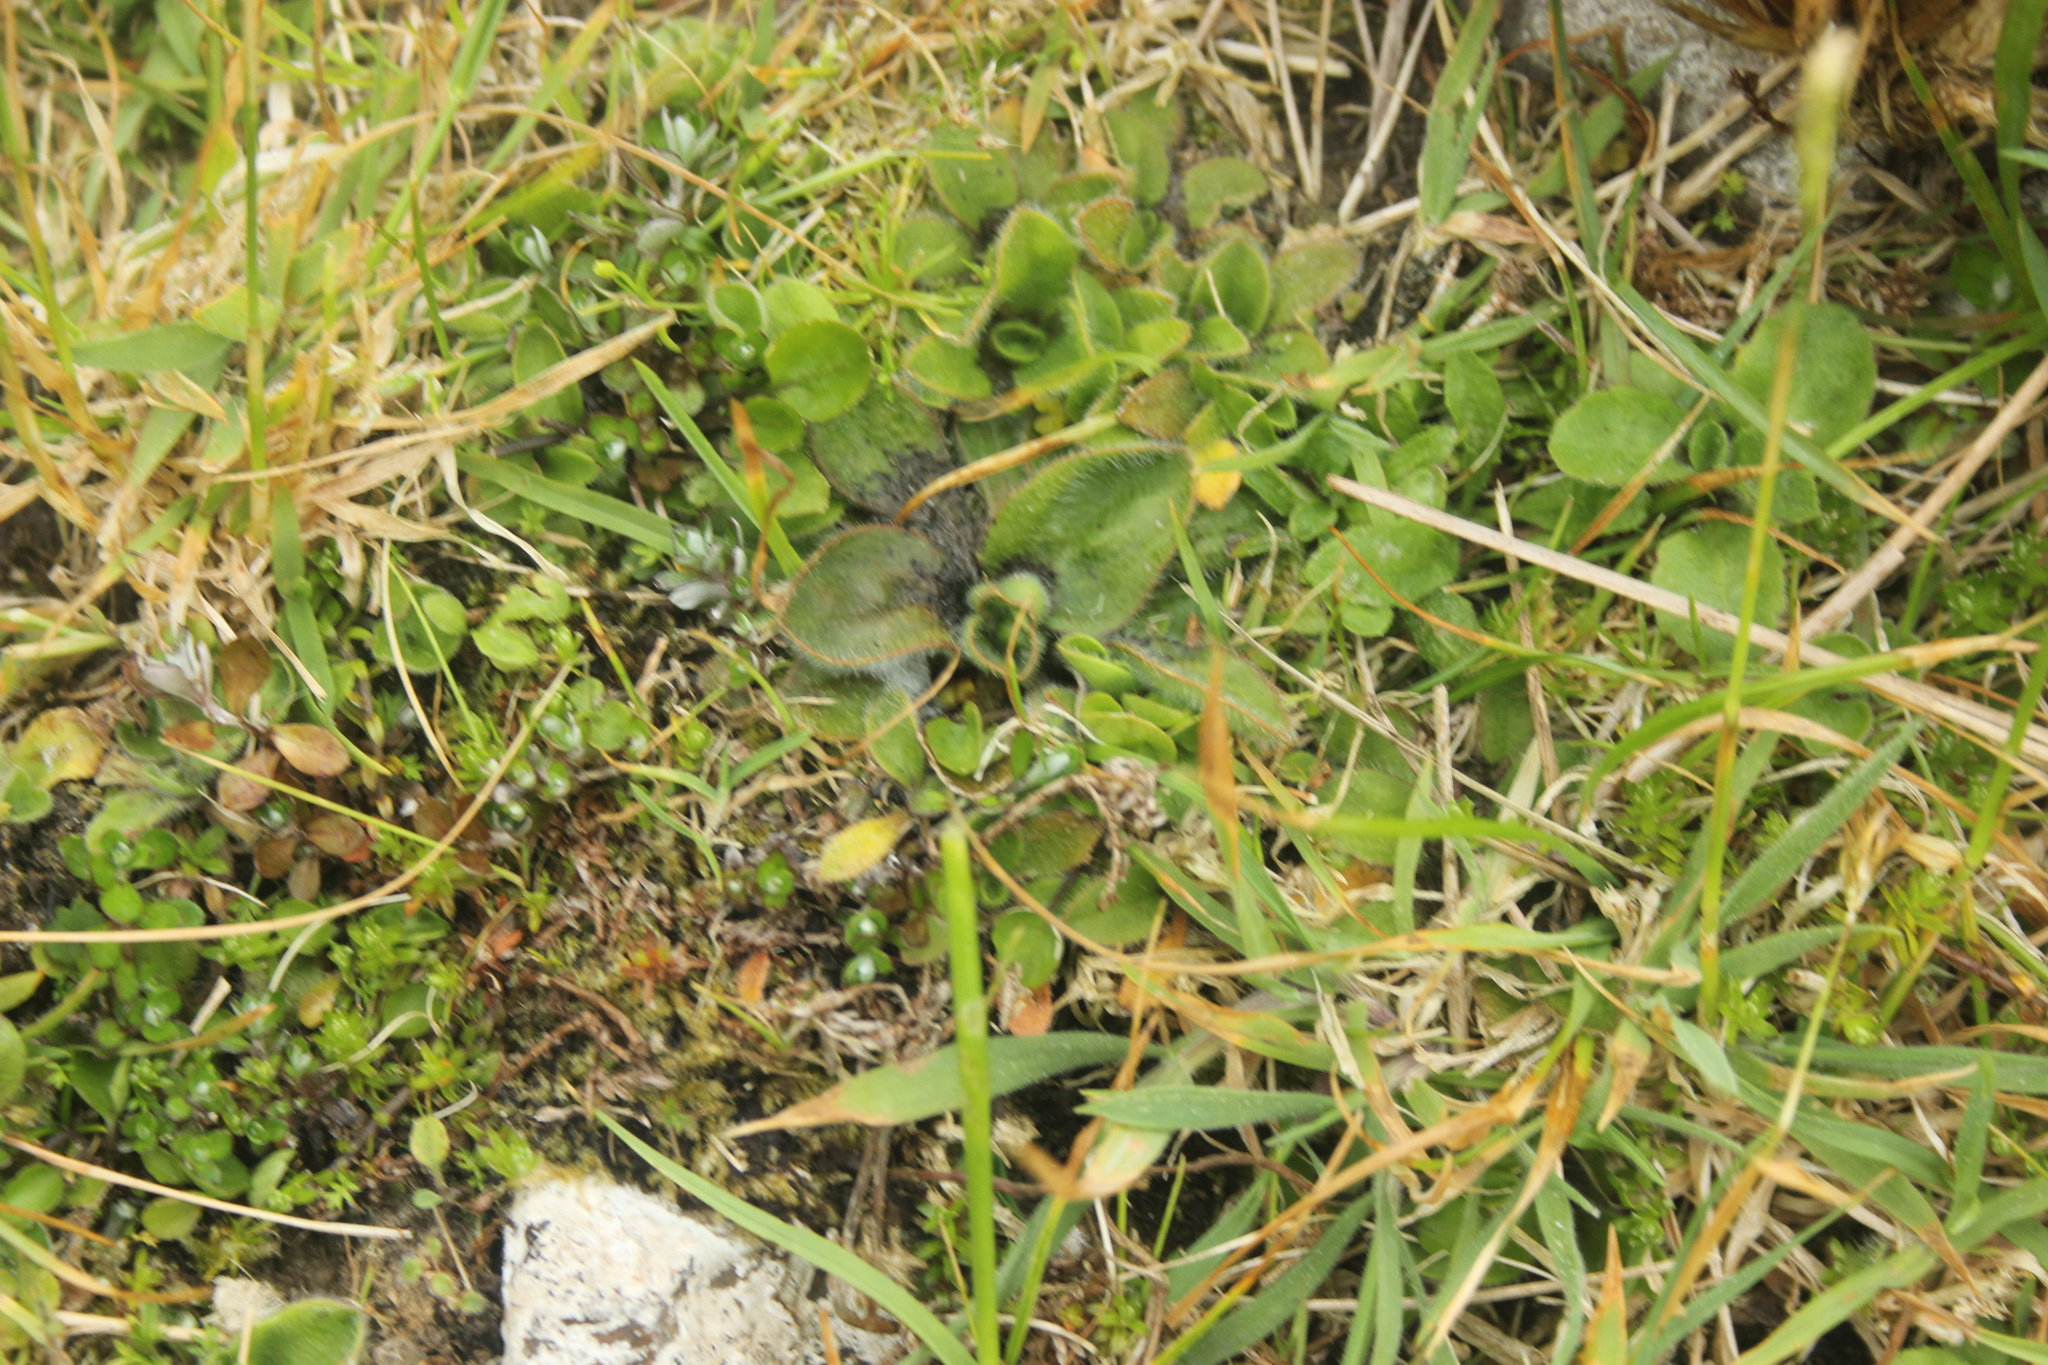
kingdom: Plantae
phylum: Tracheophyta
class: Magnoliopsida
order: Lamiales
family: Plantaginaceae
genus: Plantago
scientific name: Plantago raoulii
